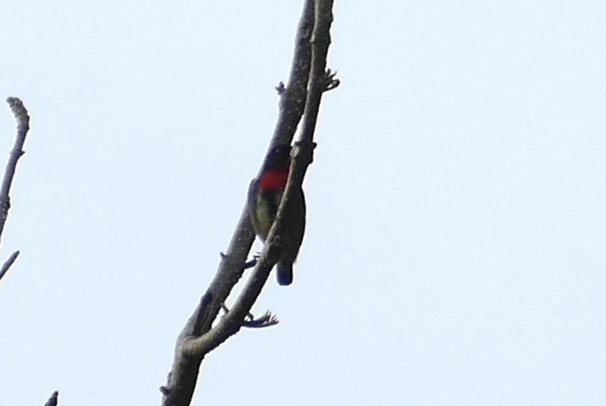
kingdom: Animalia
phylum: Chordata
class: Aves
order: Passeriformes
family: Dicaeidae
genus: Dicaeum
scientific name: Dicaeum celebicum
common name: Grey-sided flowerpecker
